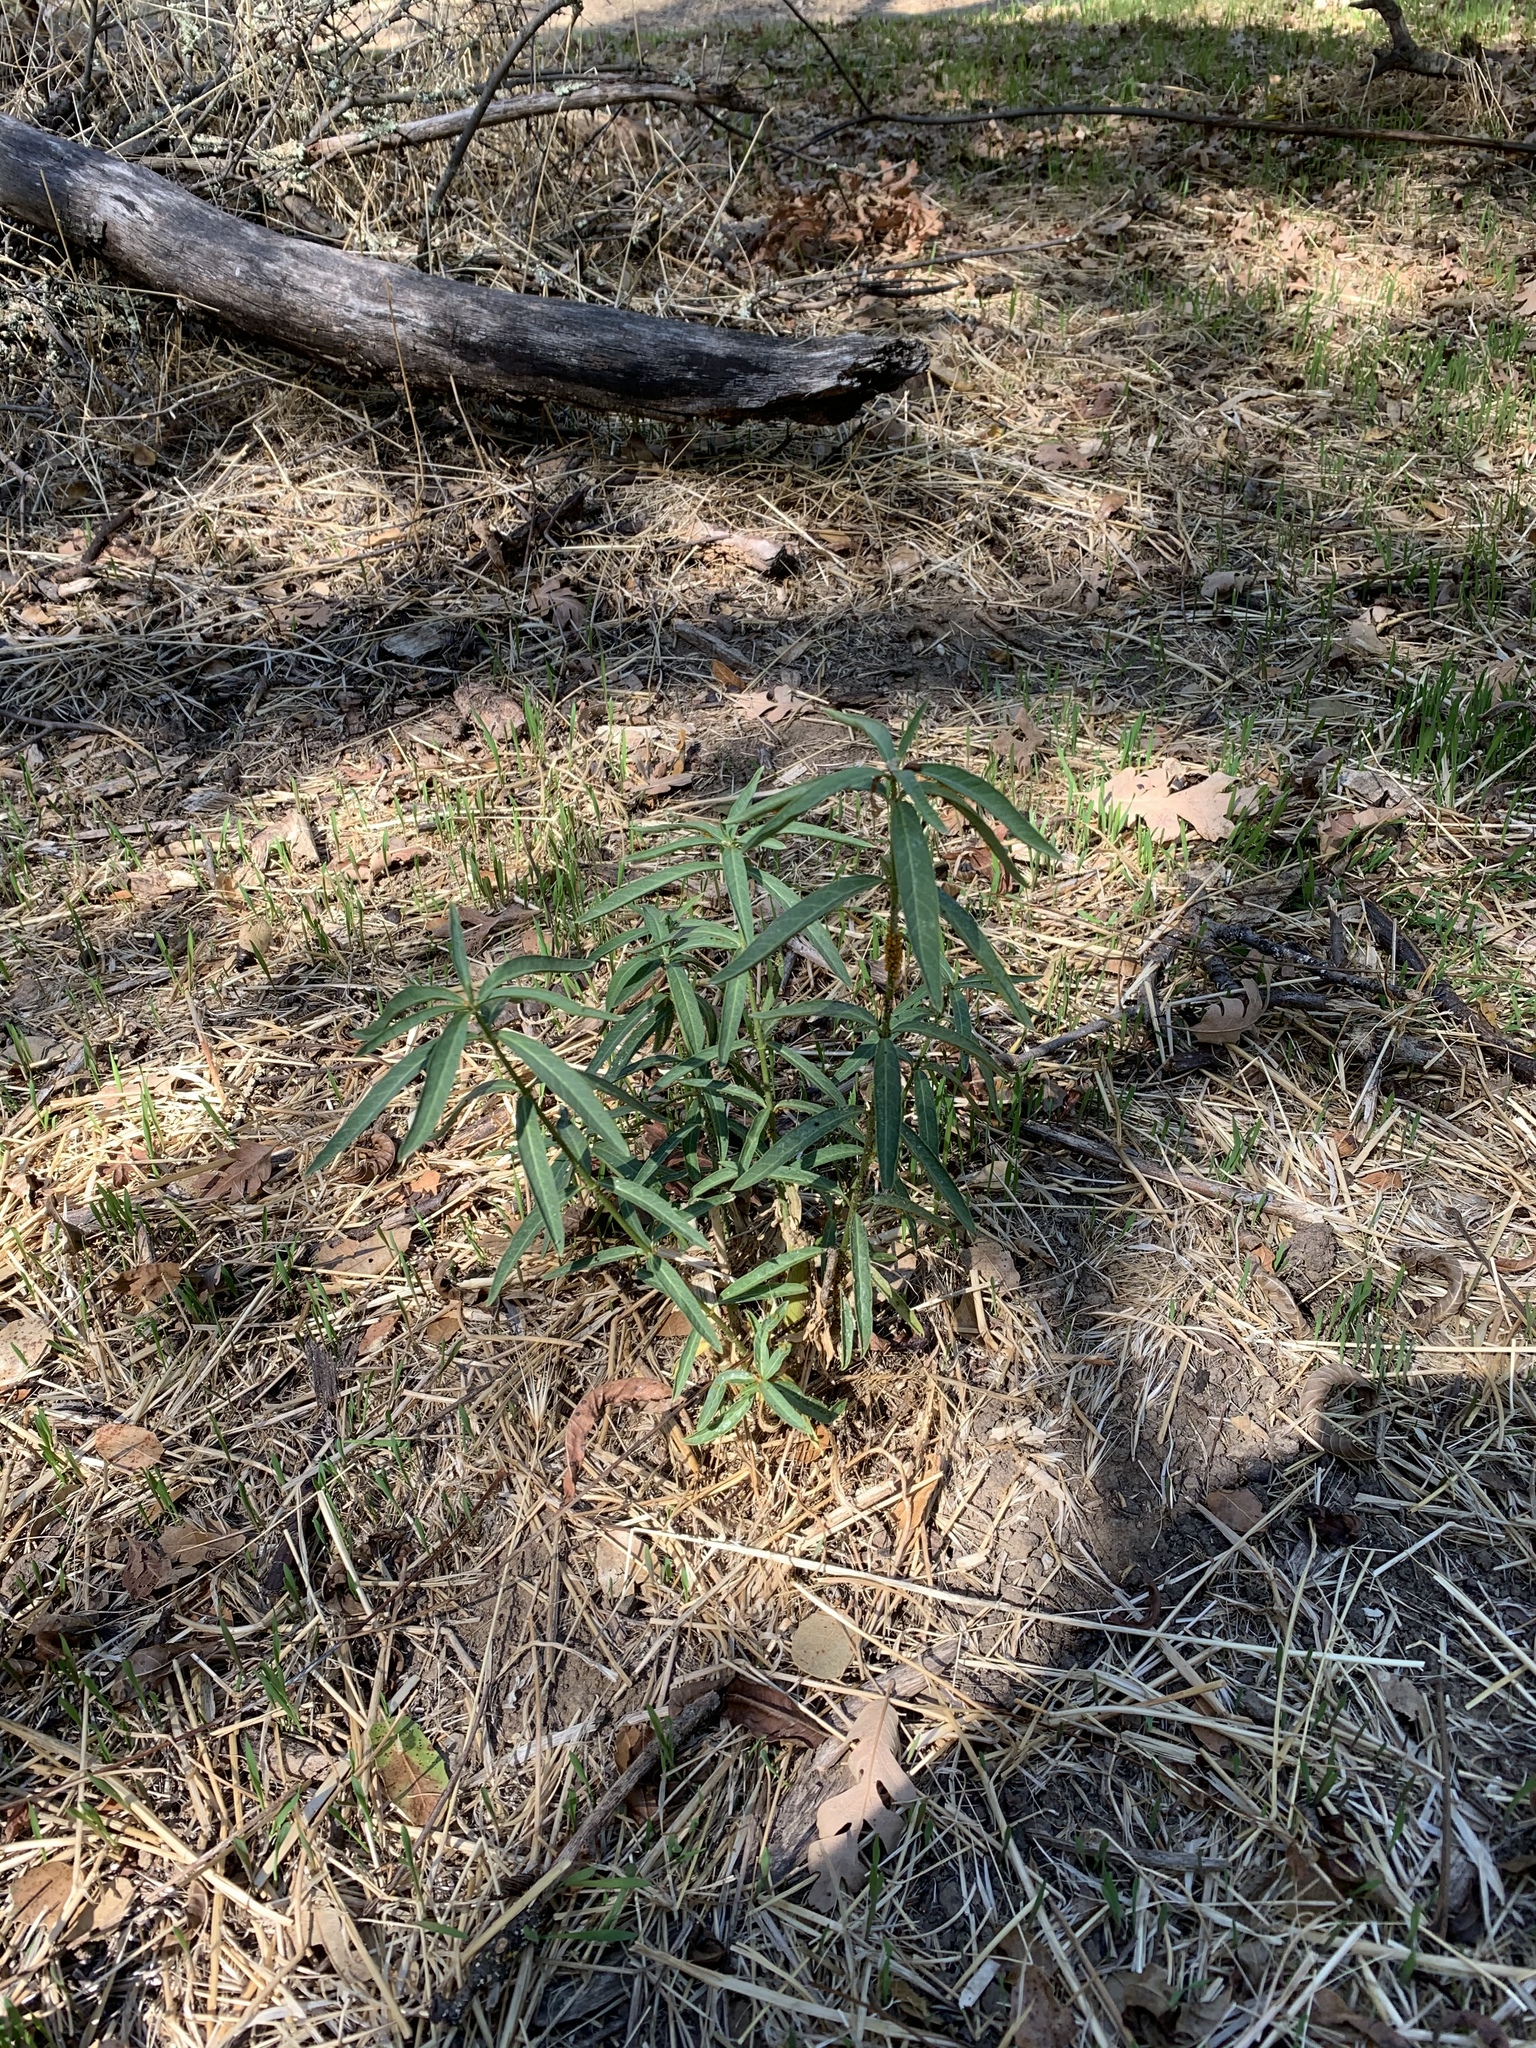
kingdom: Plantae
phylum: Tracheophyta
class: Magnoliopsida
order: Gentianales
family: Apocynaceae
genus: Asclepias
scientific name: Asclepias fascicularis
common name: Mexican milkweed
